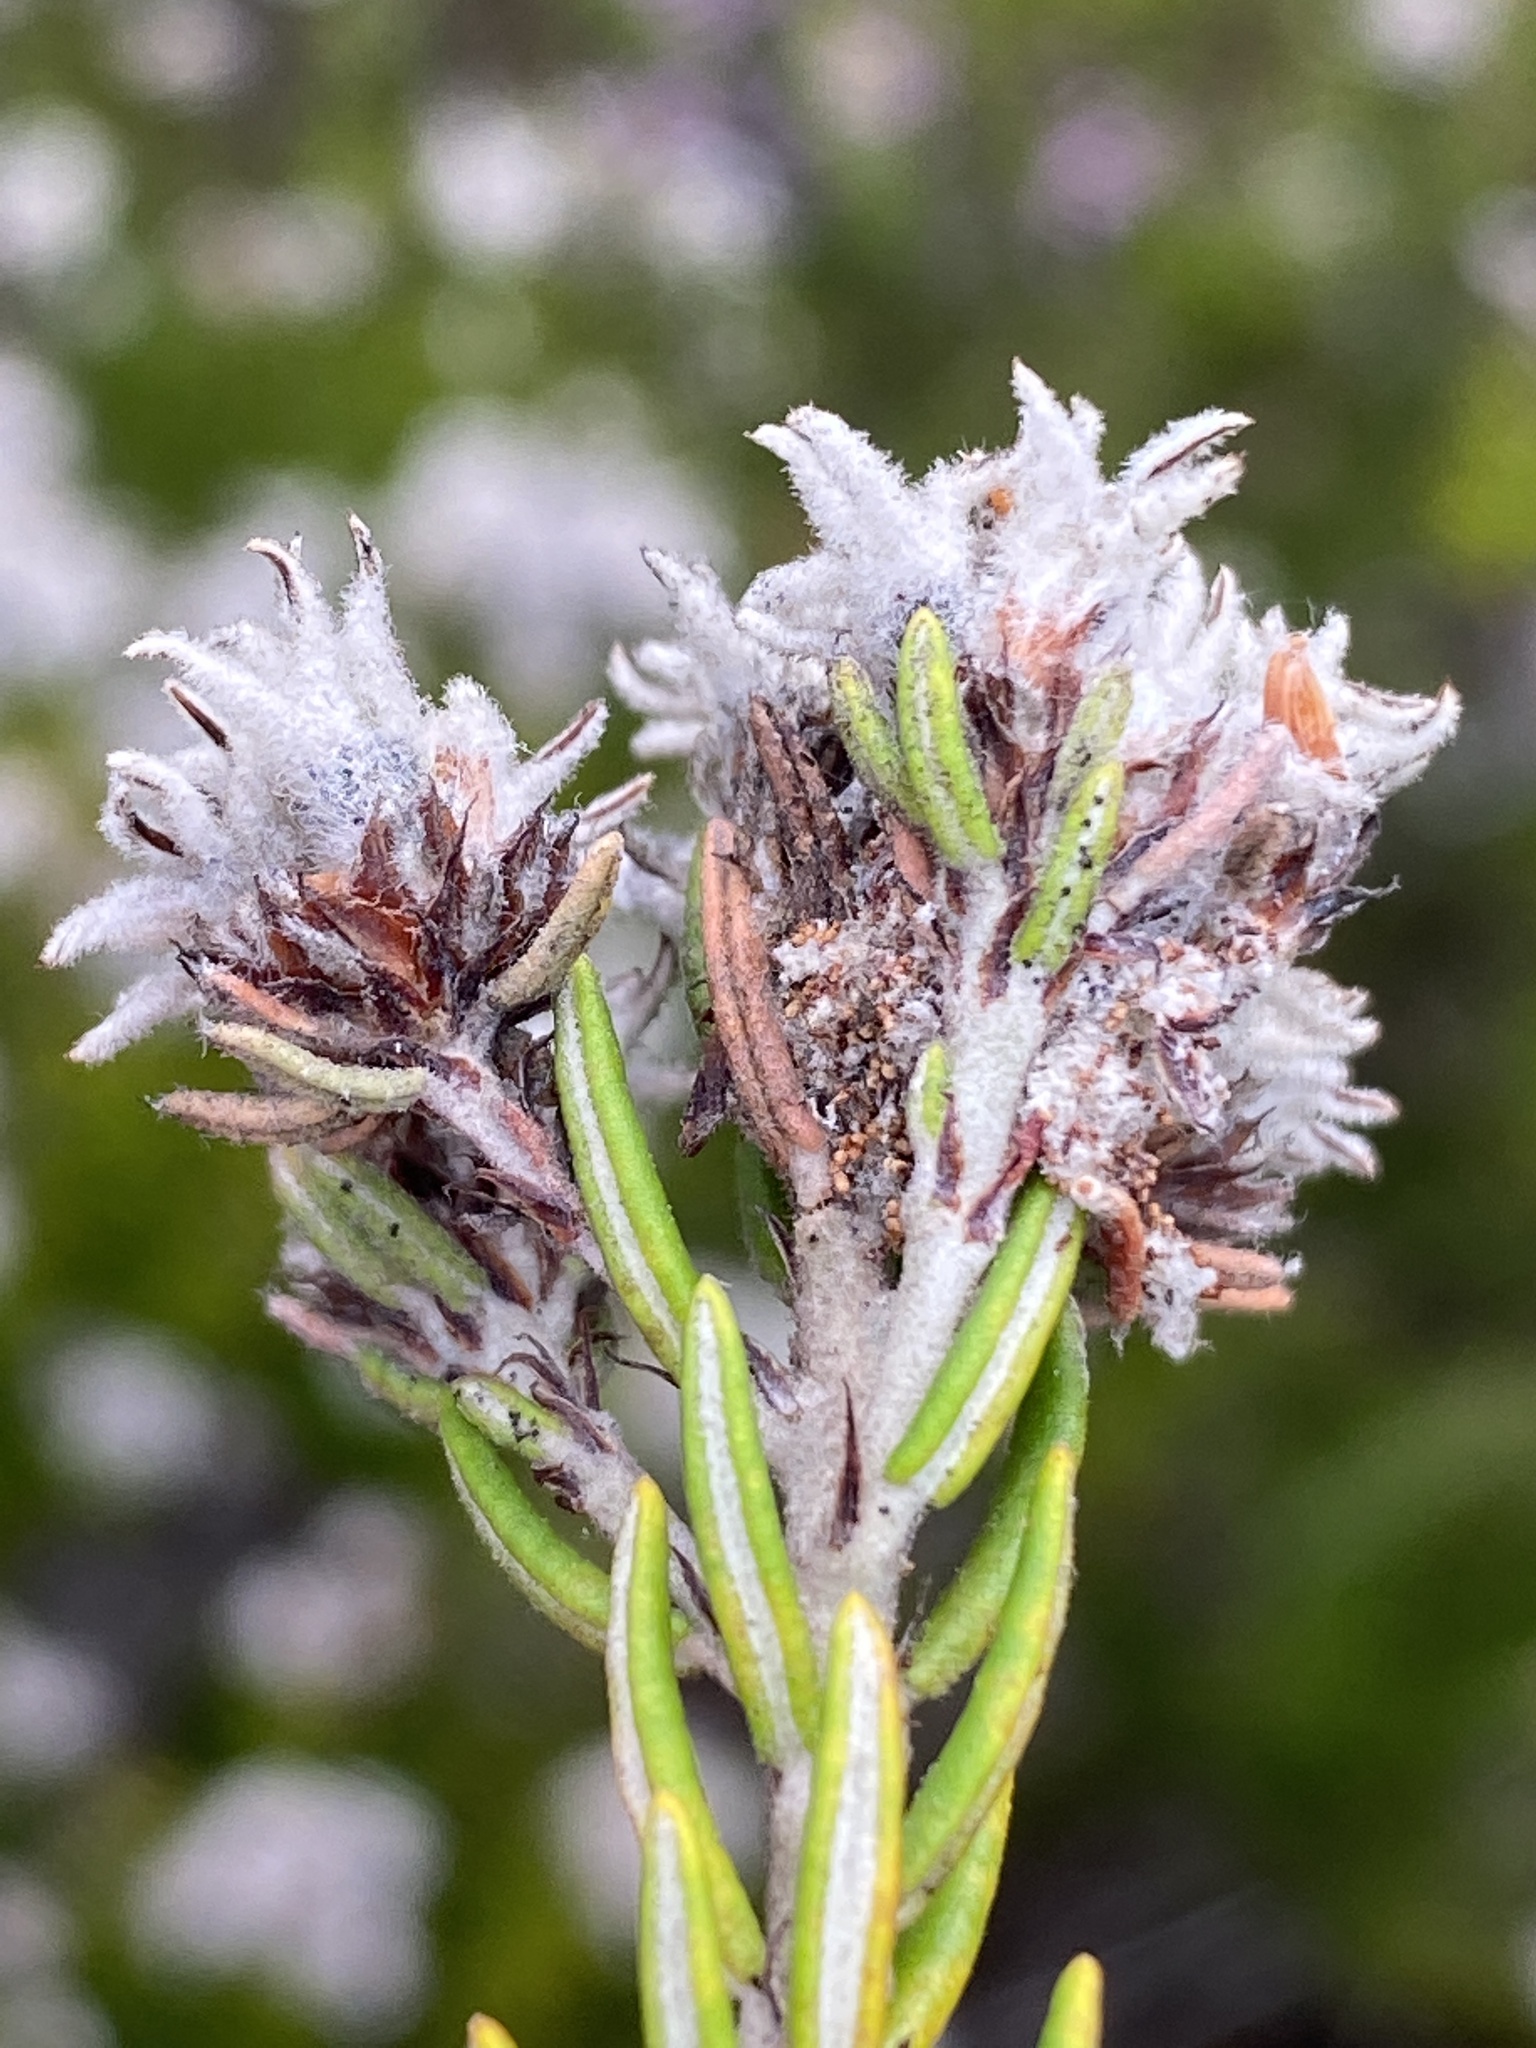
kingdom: Plantae
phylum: Tracheophyta
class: Magnoliopsida
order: Rosales
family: Rhamnaceae
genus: Trichocephalus
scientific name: Trichocephalus stipularis
